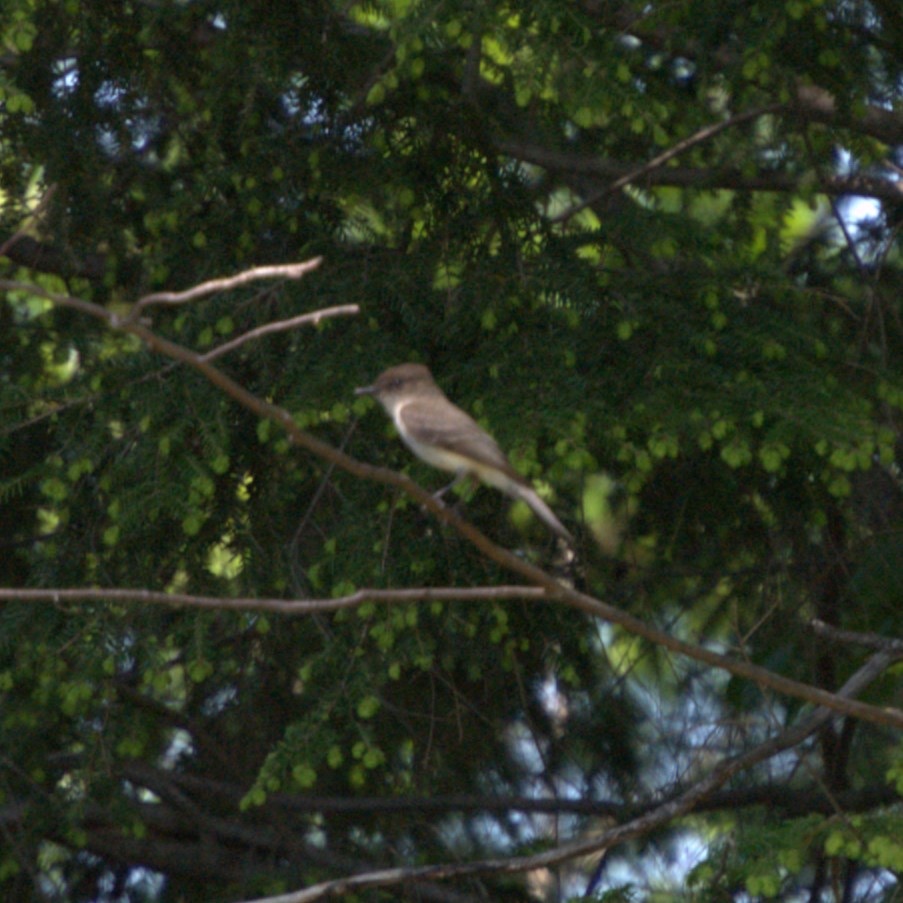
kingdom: Animalia
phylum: Chordata
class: Aves
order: Passeriformes
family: Tyrannidae
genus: Sayornis
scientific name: Sayornis phoebe
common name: Eastern phoebe
